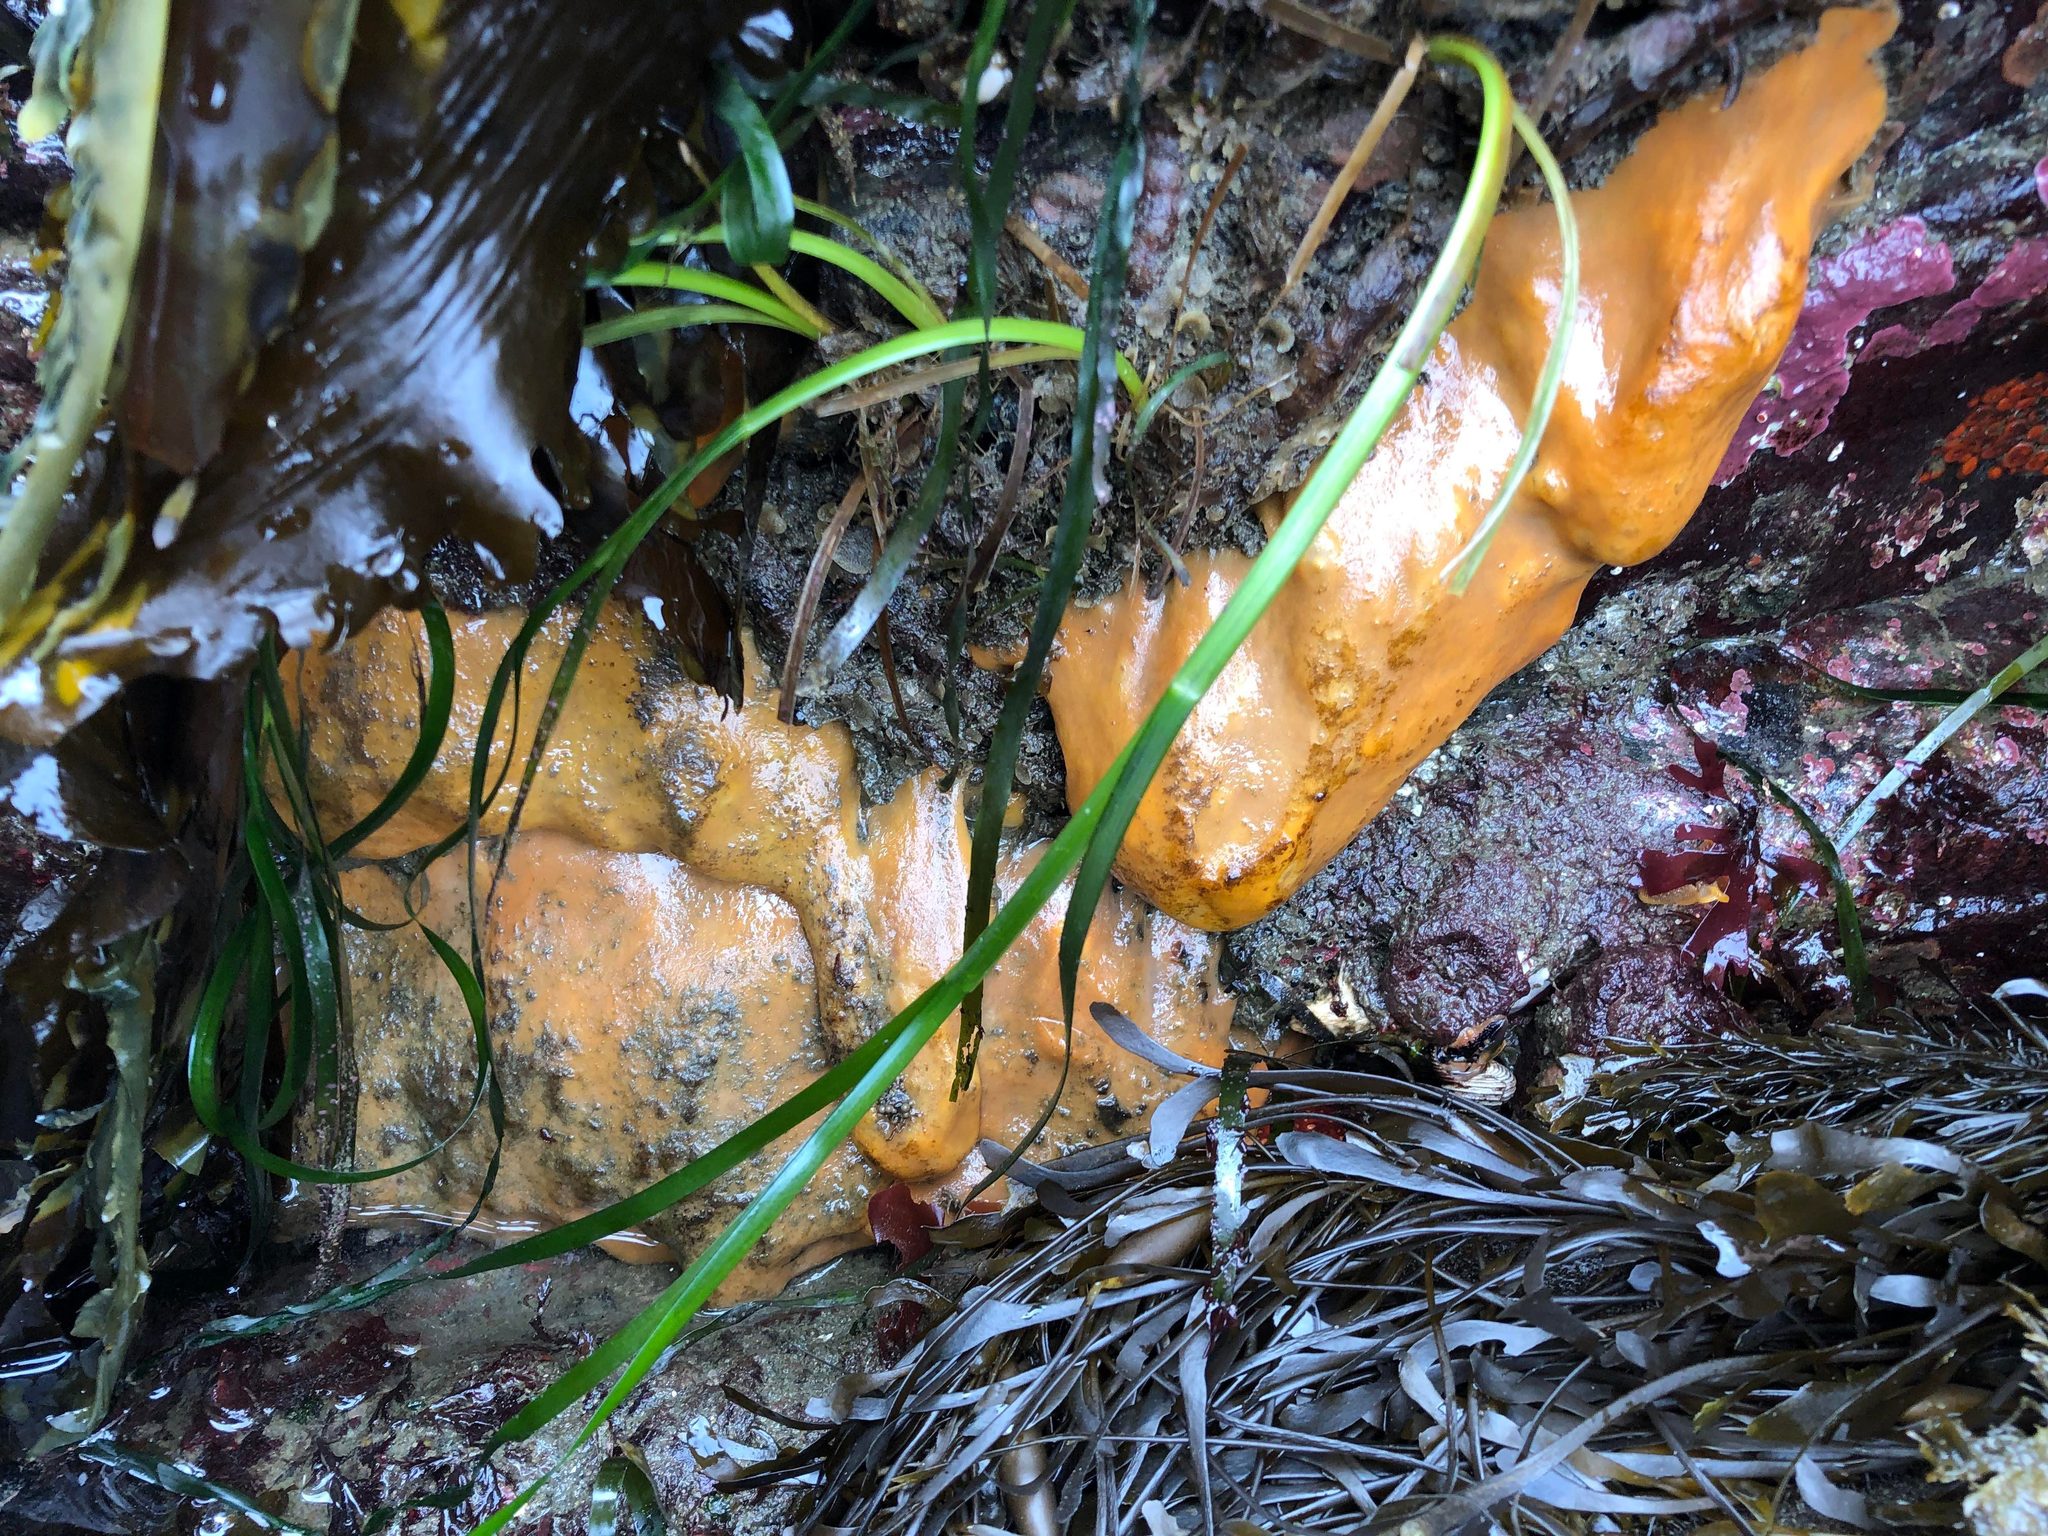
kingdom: Animalia
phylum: Porifera
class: Demospongiae
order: Suberitida
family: Suberitidae
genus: Suberites
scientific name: Suberites lambei
